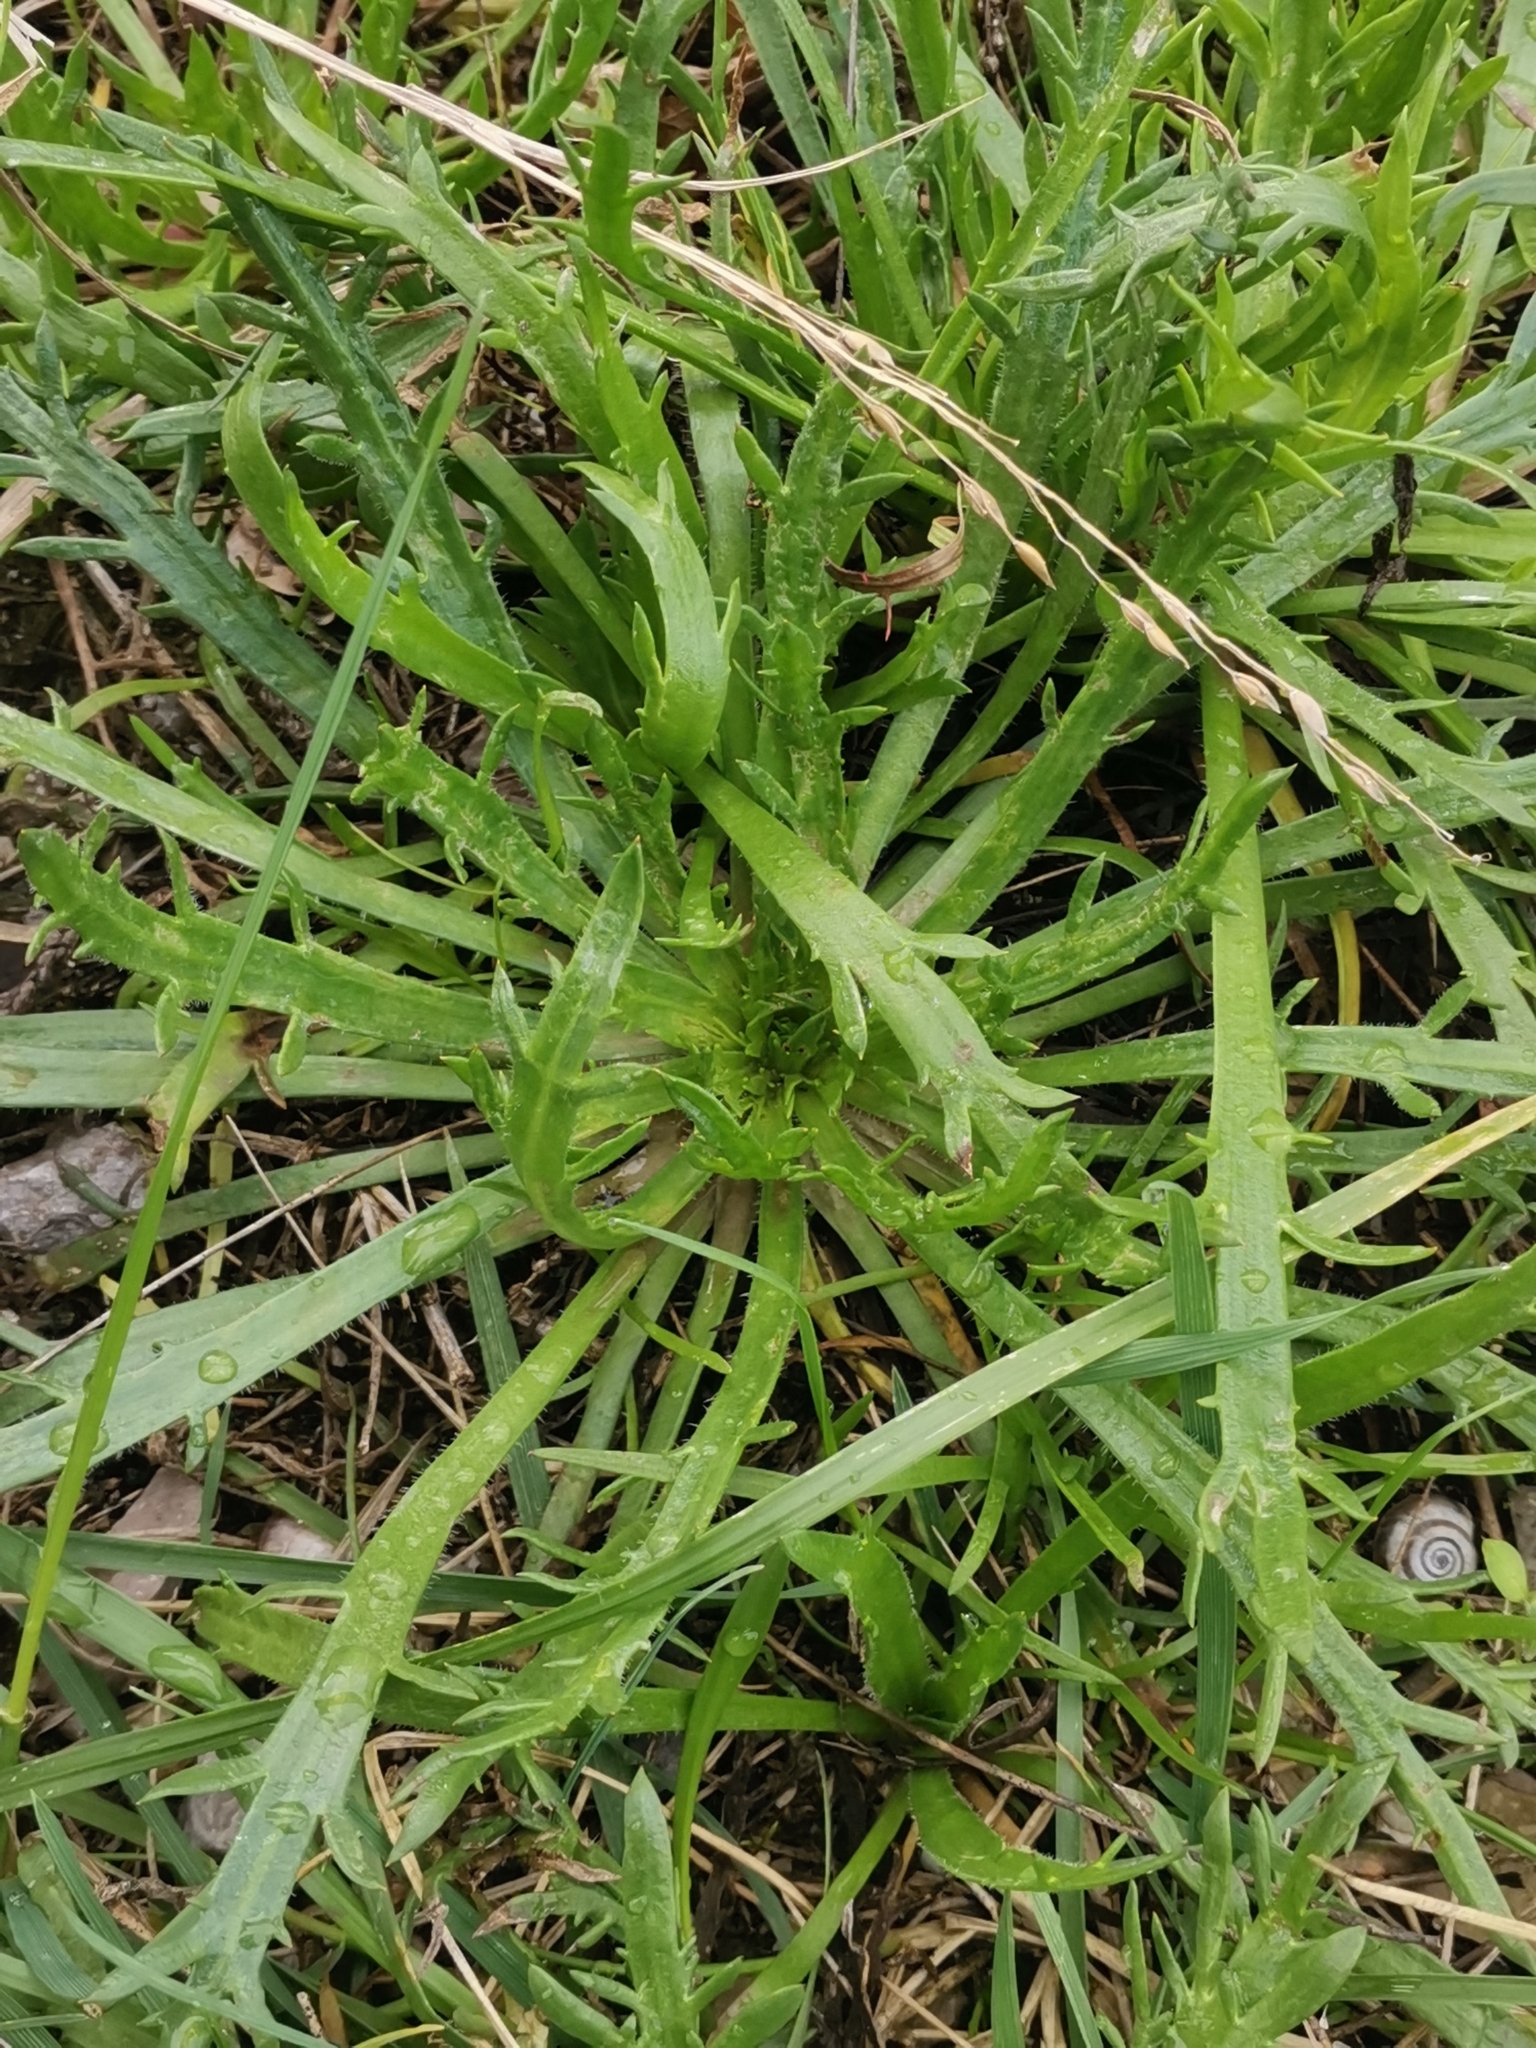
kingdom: Plantae
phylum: Tracheophyta
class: Magnoliopsida
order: Lamiales
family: Plantaginaceae
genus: Plantago
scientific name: Plantago coronopus
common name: Buck's-horn plantain
